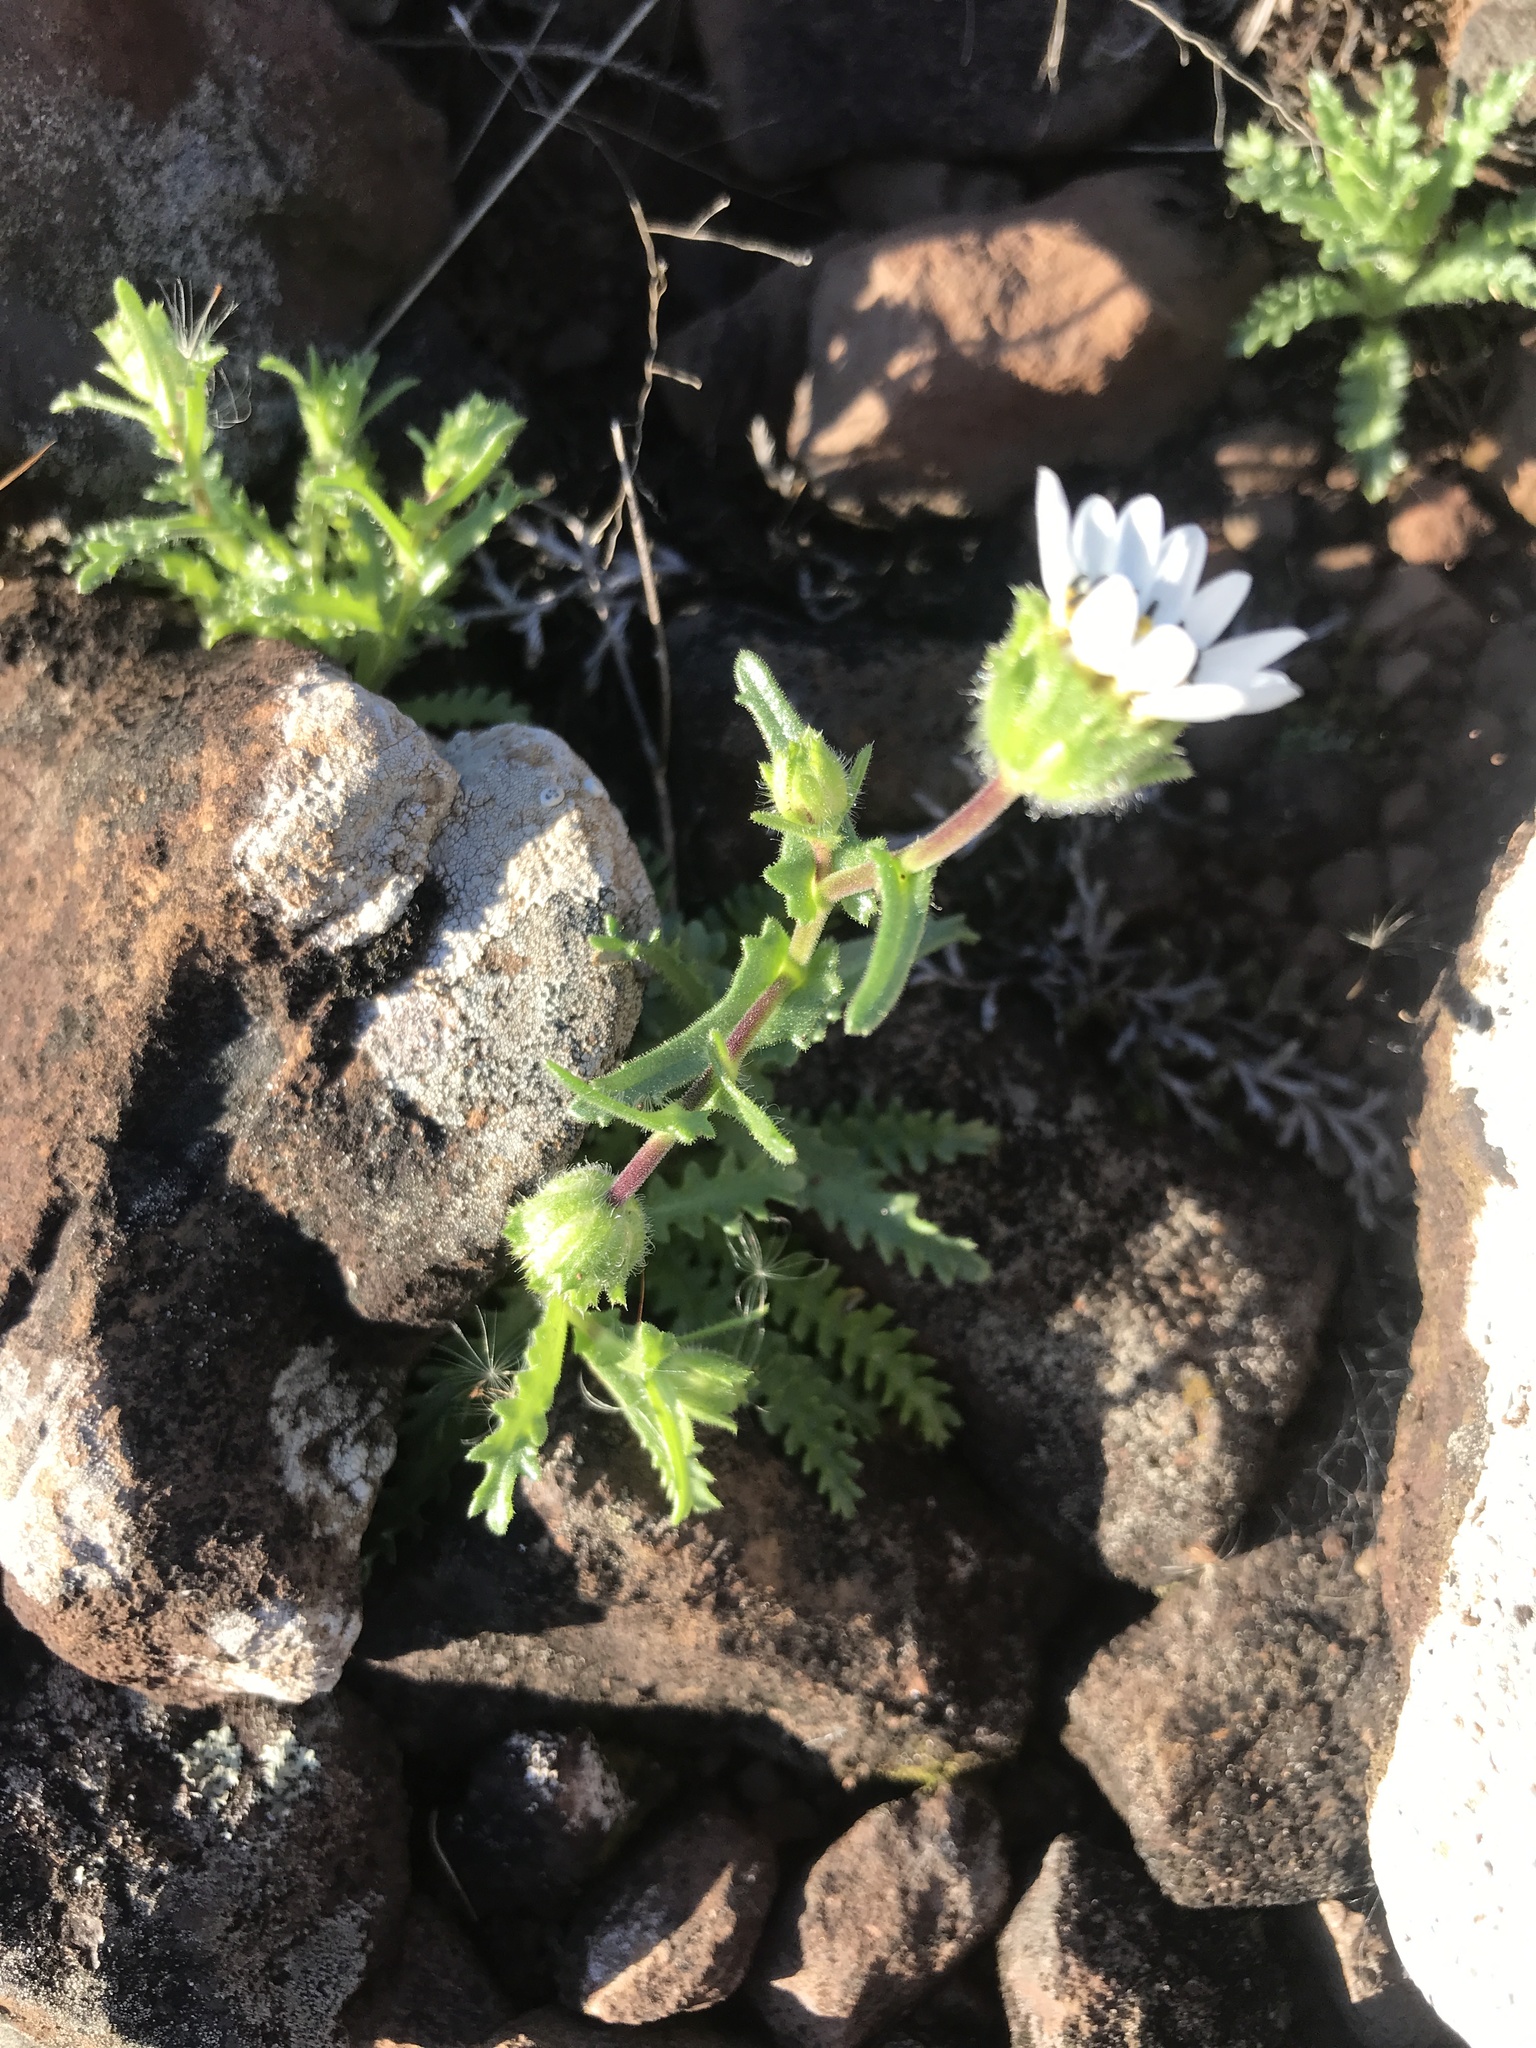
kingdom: Plantae
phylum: Tracheophyta
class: Magnoliopsida
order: Asterales
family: Asteraceae
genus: Perezia
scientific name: Perezia multiflora
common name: Perezia
